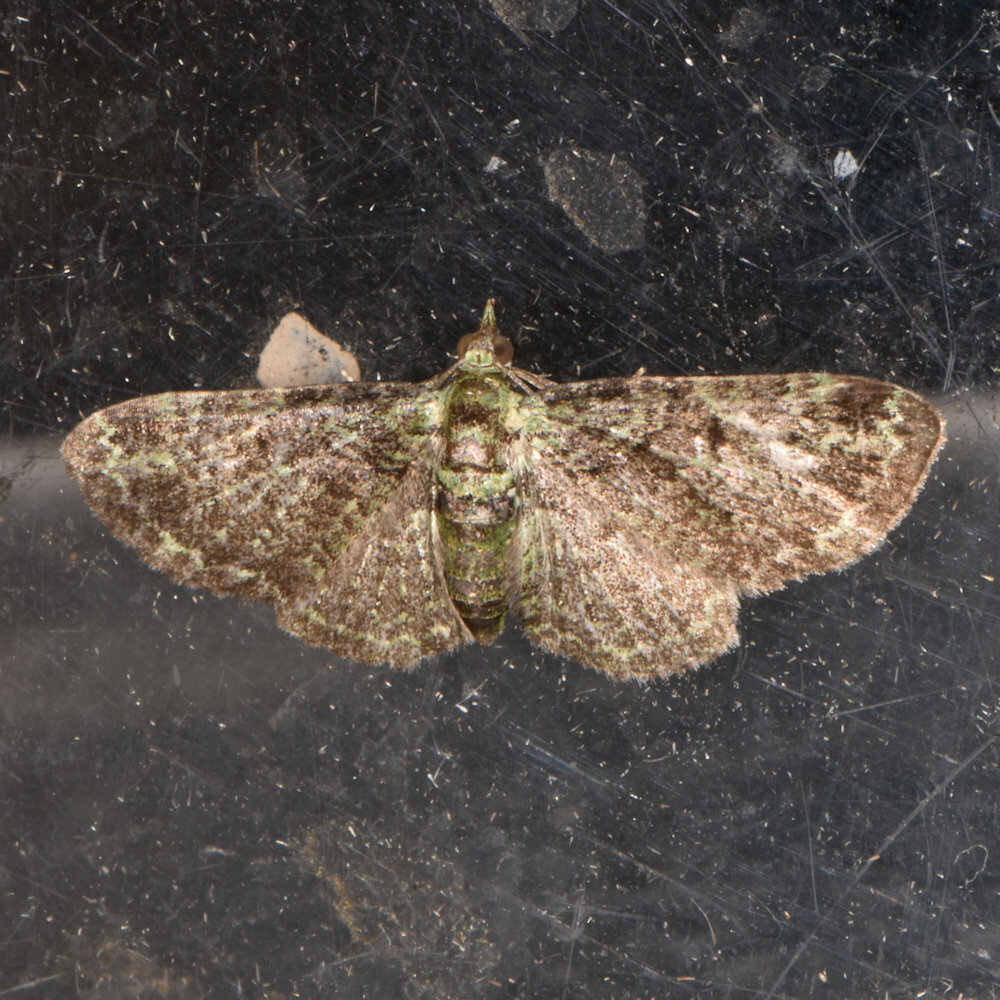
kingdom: Animalia
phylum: Arthropoda
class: Insecta
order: Lepidoptera
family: Geometridae
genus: Pasiphila
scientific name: Pasiphila rectangulata
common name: Green pug
